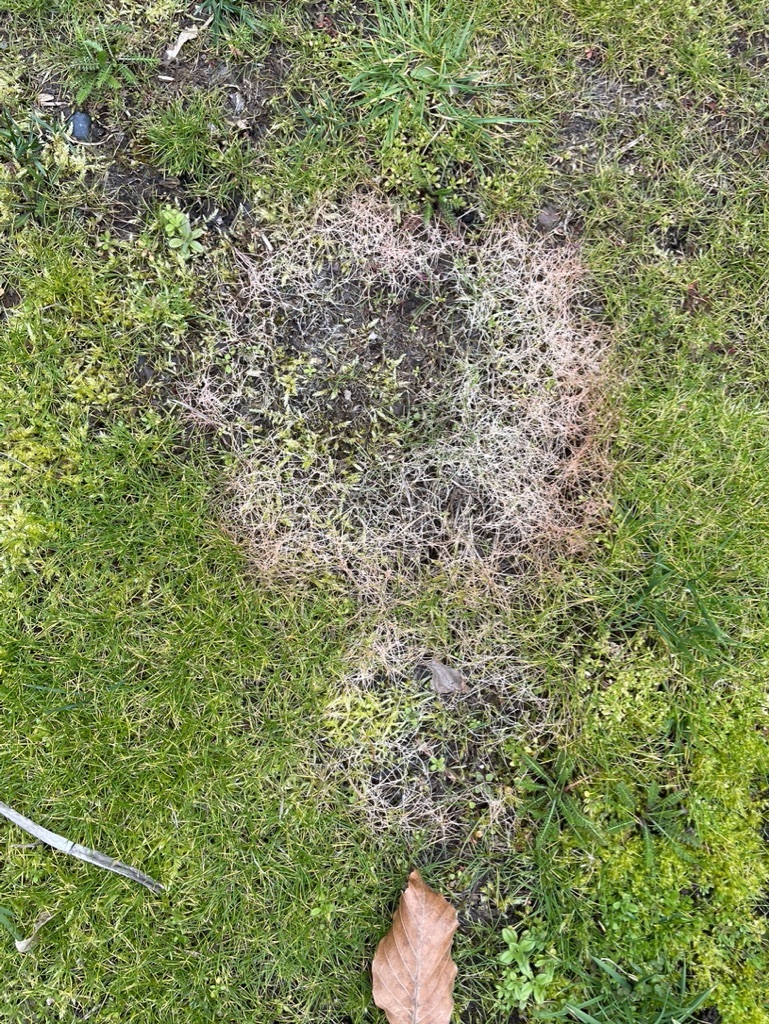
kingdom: Fungi
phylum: Ascomycota
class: Sordariomycetes
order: Amphisphaeriales
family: Amphisphaeriaceae
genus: Microdochium
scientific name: Microdochium nivale
